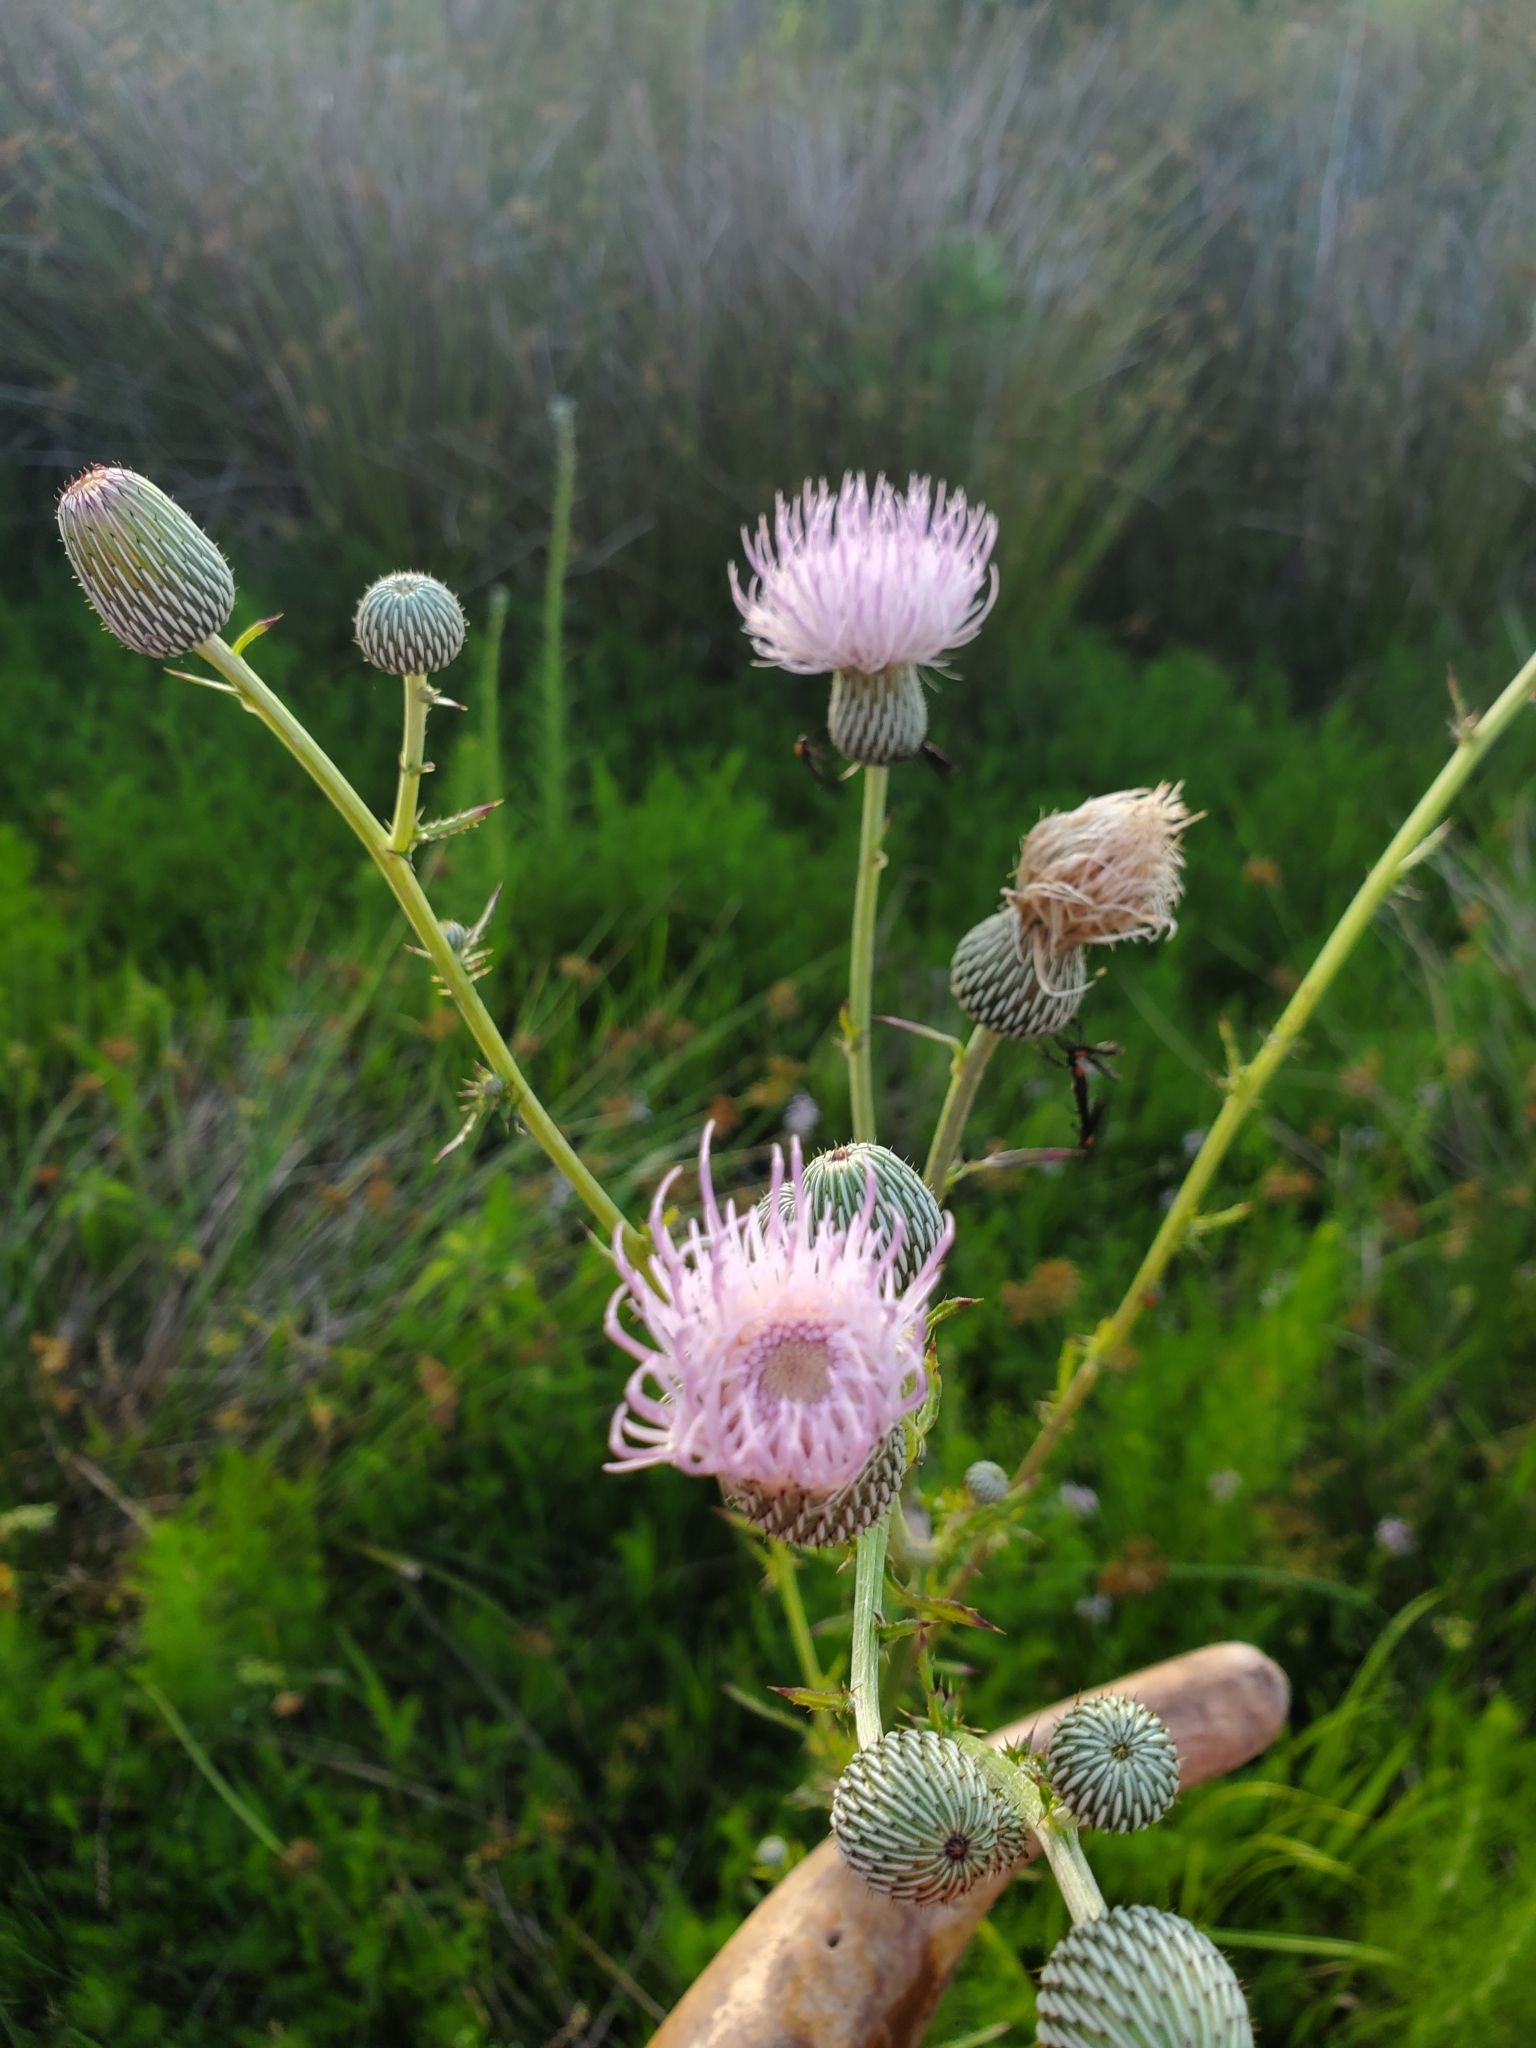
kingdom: Plantae
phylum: Tracheophyta
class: Magnoliopsida
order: Asterales
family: Asteraceae
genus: Cirsium
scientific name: Cirsium nuttalii
